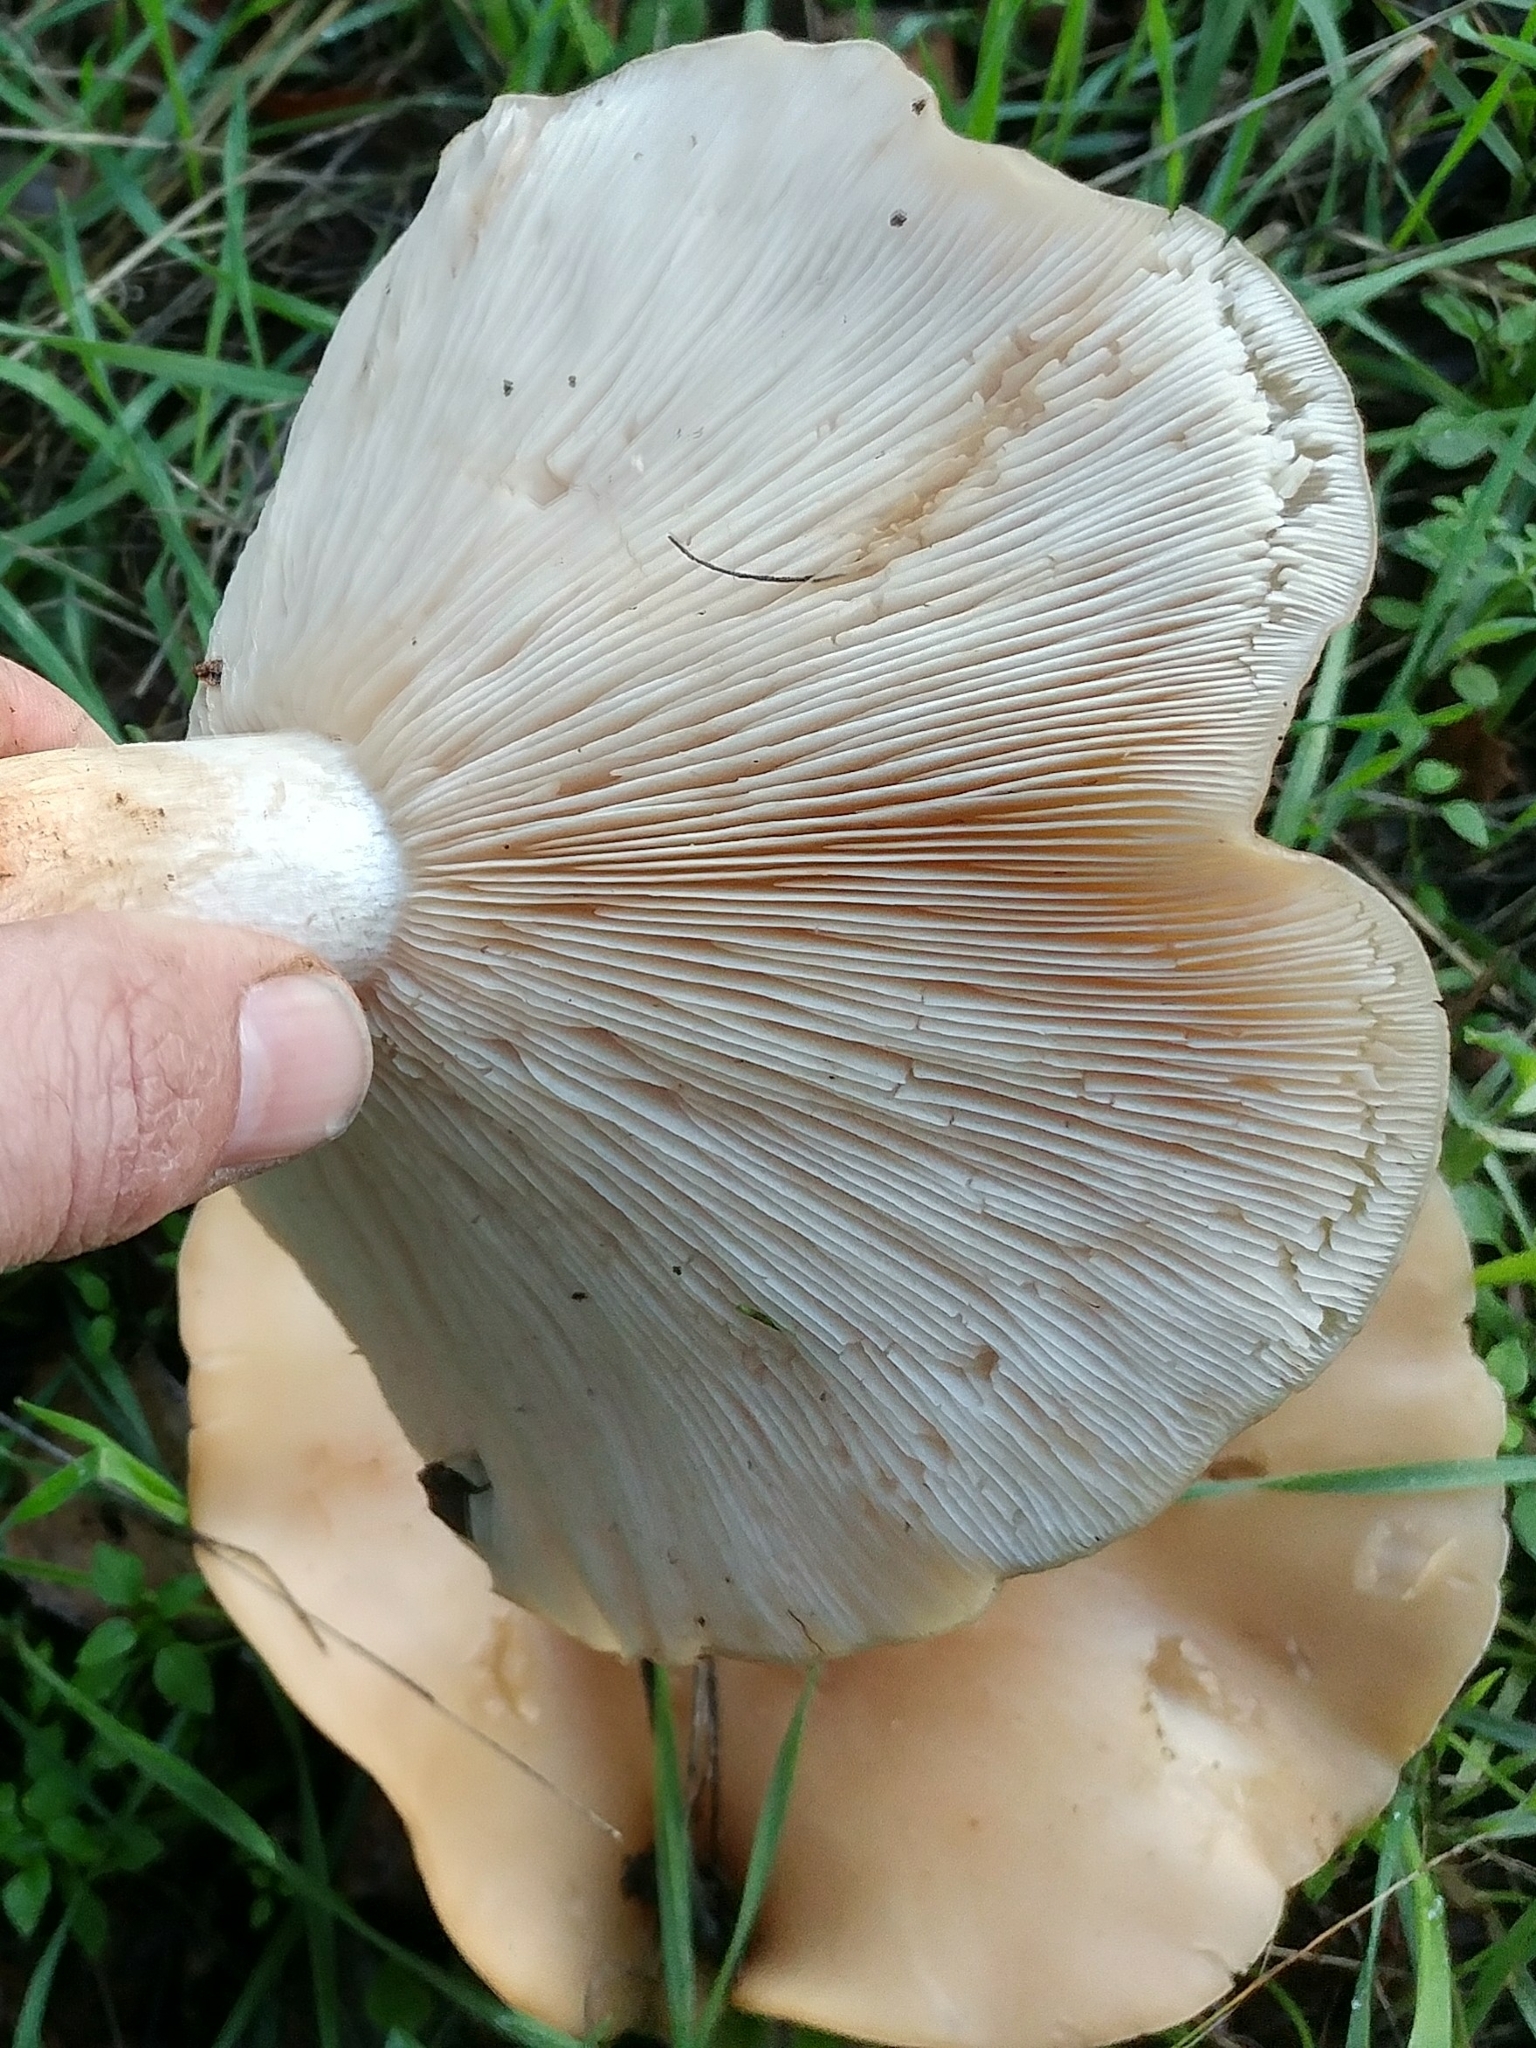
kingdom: Fungi
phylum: Basidiomycota
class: Agaricomycetes
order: Agaricales
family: Tricholomataceae
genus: Collybia
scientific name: Collybia
